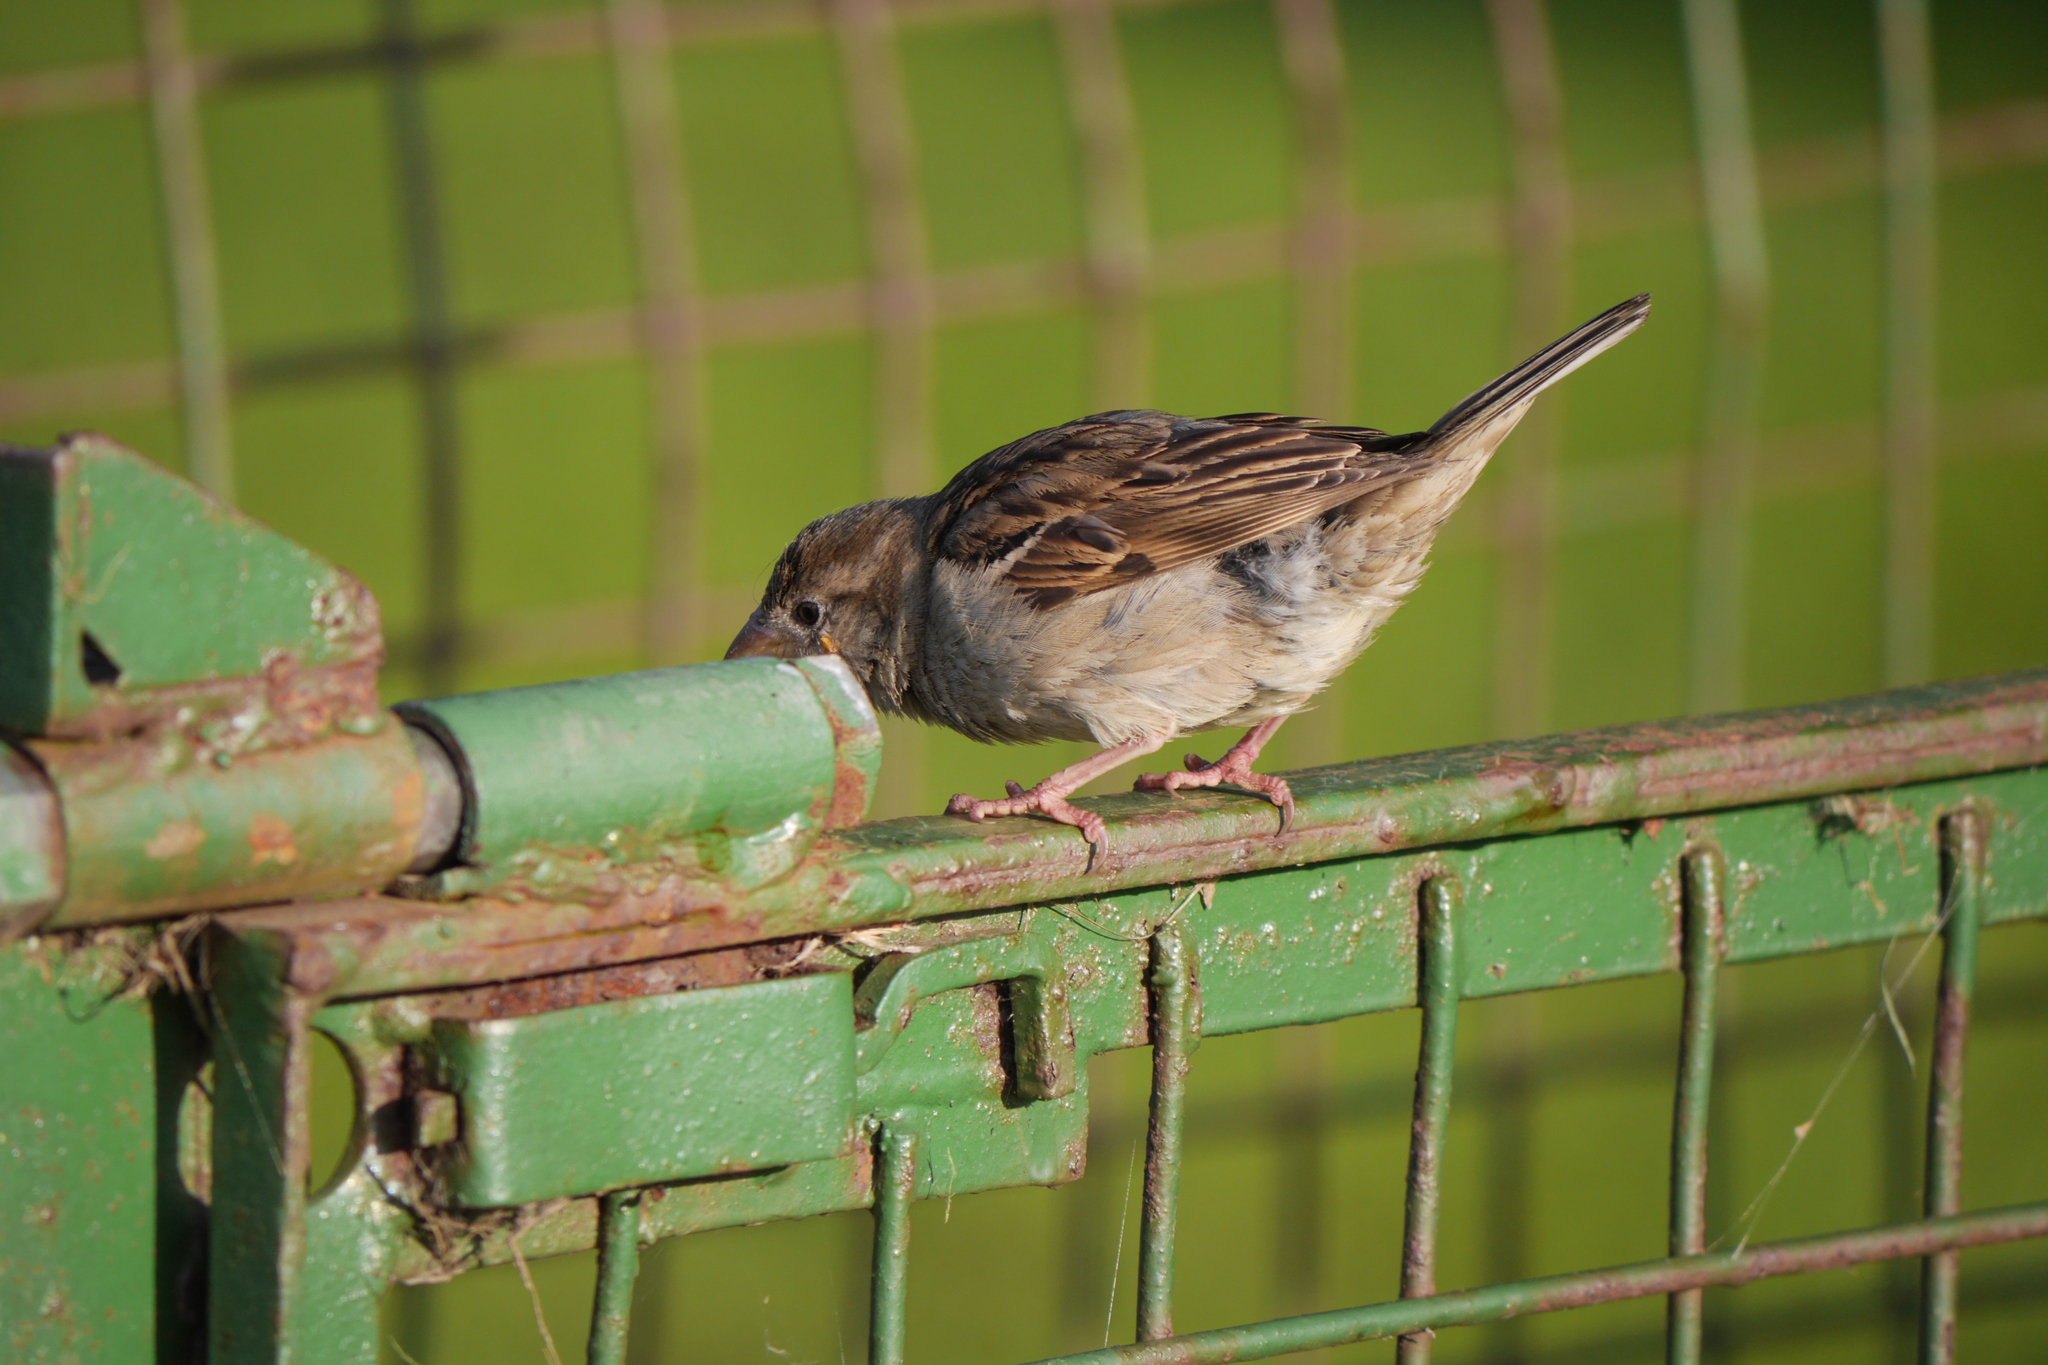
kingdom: Animalia
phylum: Chordata
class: Aves
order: Passeriformes
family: Passeridae
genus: Passer
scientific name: Passer domesticus
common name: House sparrow
